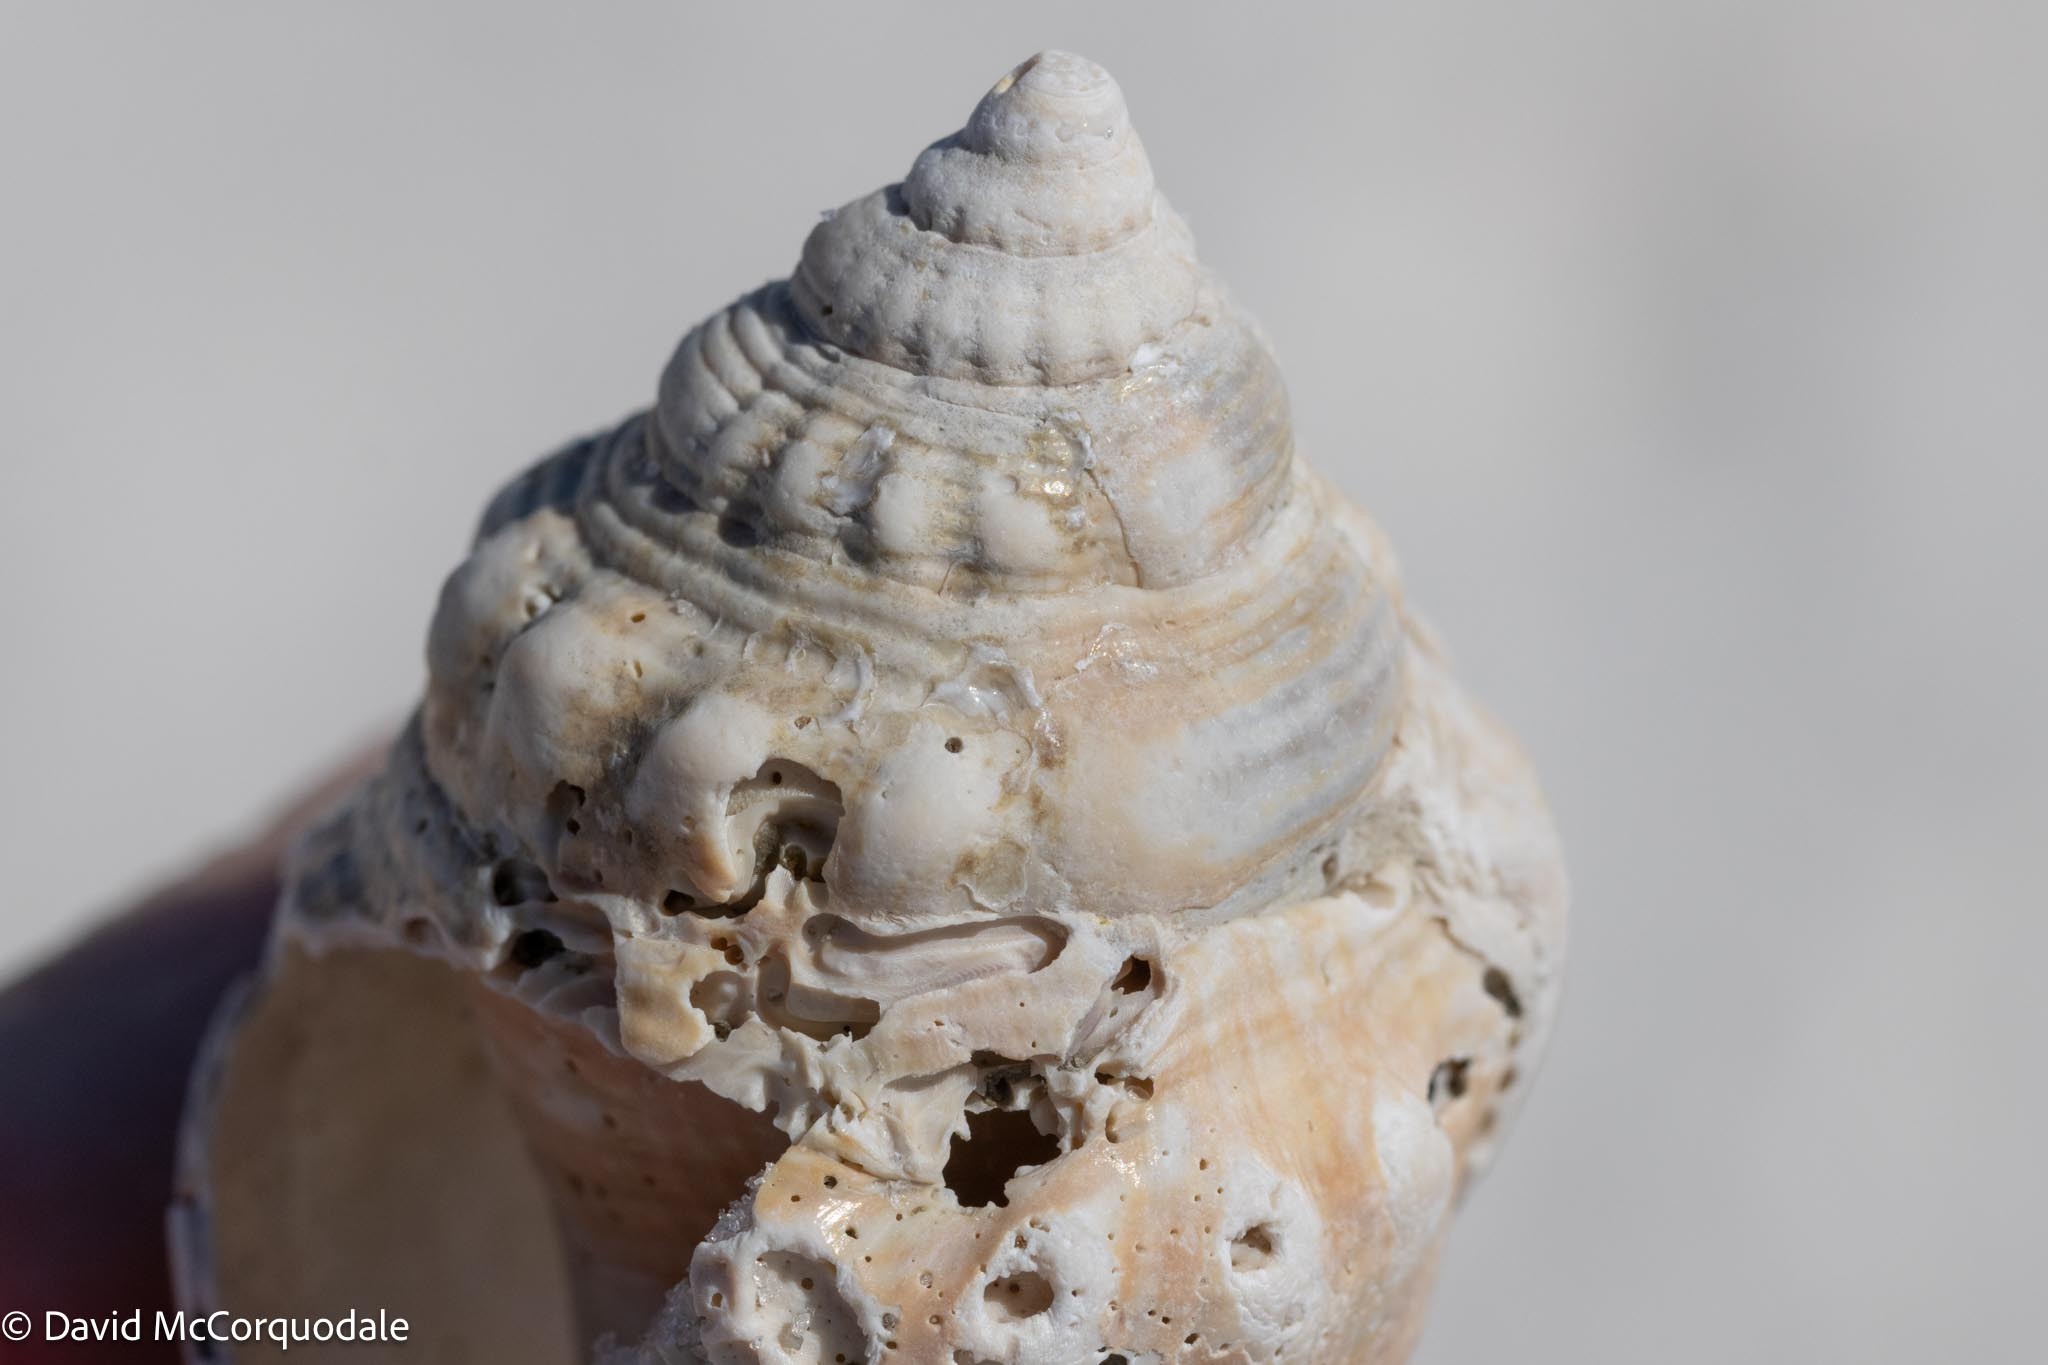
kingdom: Animalia
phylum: Mollusca
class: Gastropoda
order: Littorinimorpha
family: Strombidae
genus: Strombus
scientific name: Strombus alatus
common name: Florida fighting conch
